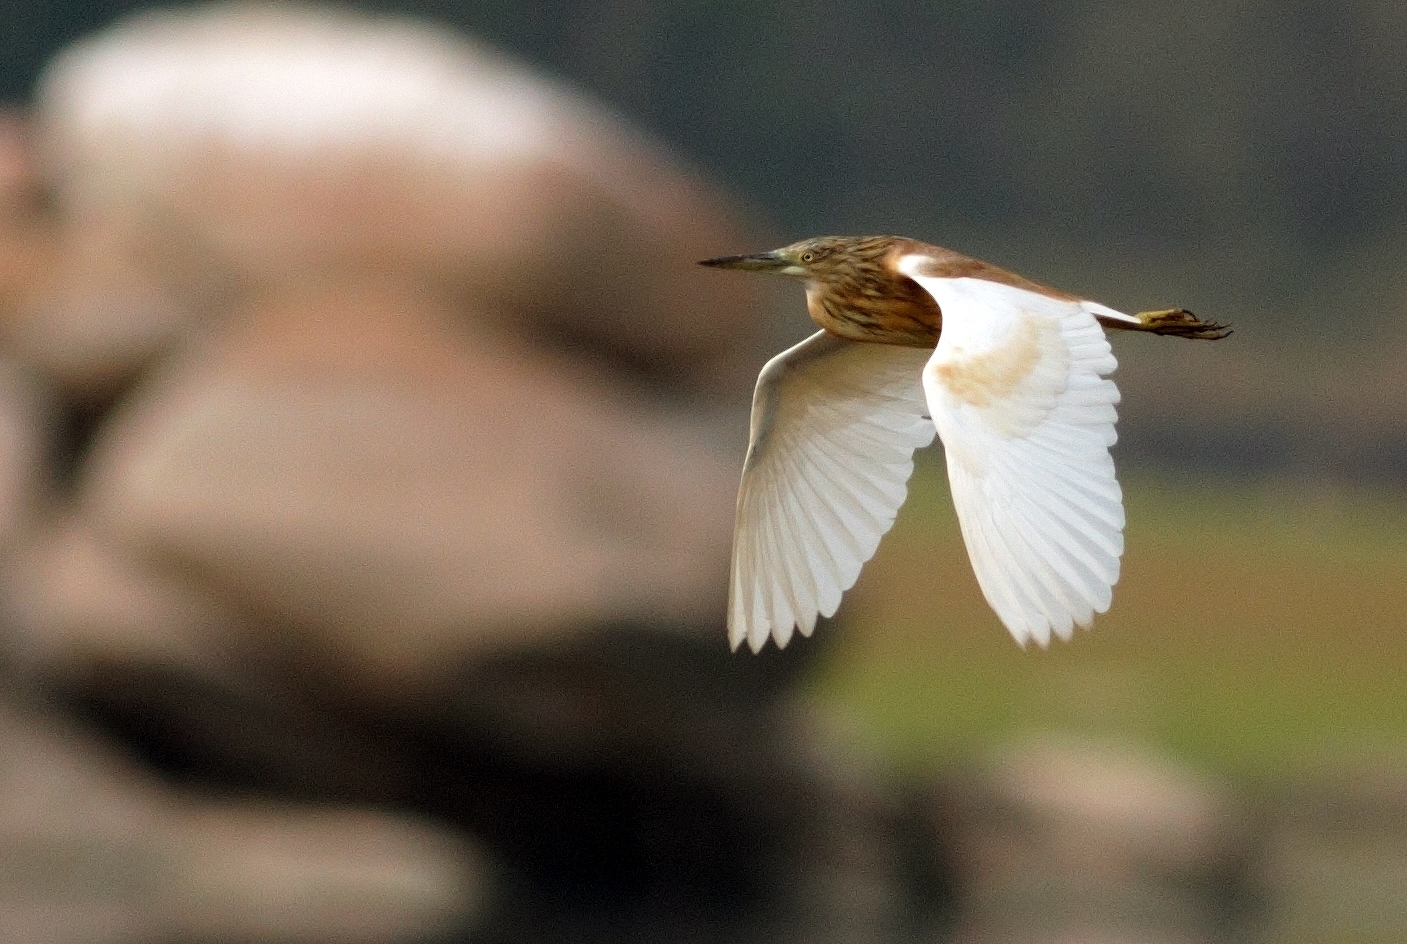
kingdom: Animalia
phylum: Chordata
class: Aves
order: Pelecaniformes
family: Ardeidae
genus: Ardeola
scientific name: Ardeola ralloides
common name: Squacco heron
